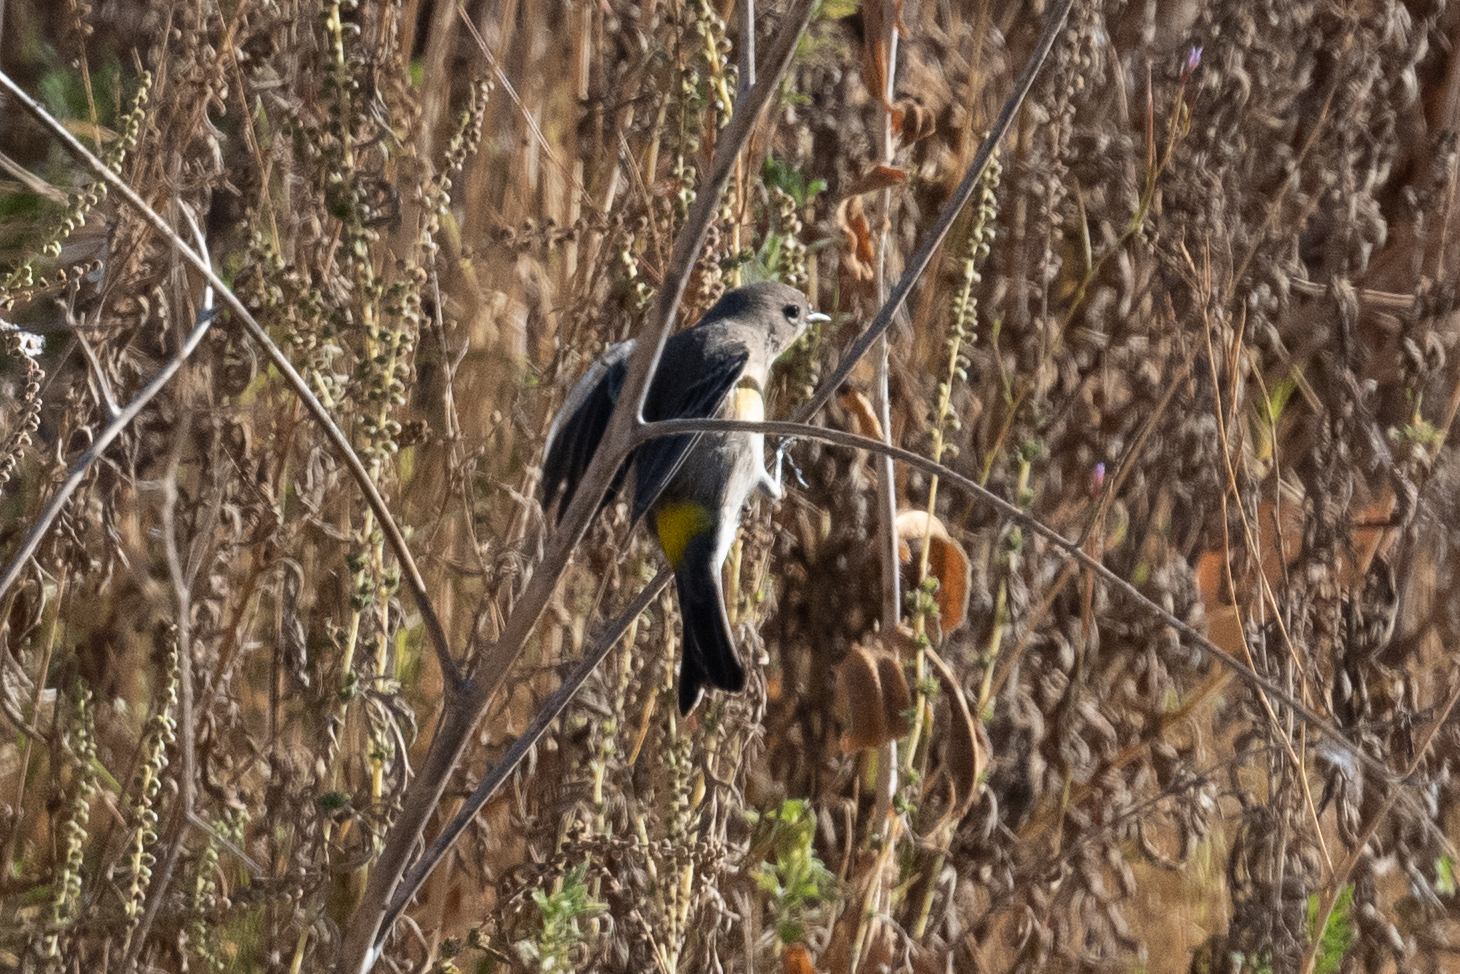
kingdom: Animalia
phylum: Chordata
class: Aves
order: Passeriformes
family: Parulidae
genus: Setophaga
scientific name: Setophaga coronata
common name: Myrtle warbler
